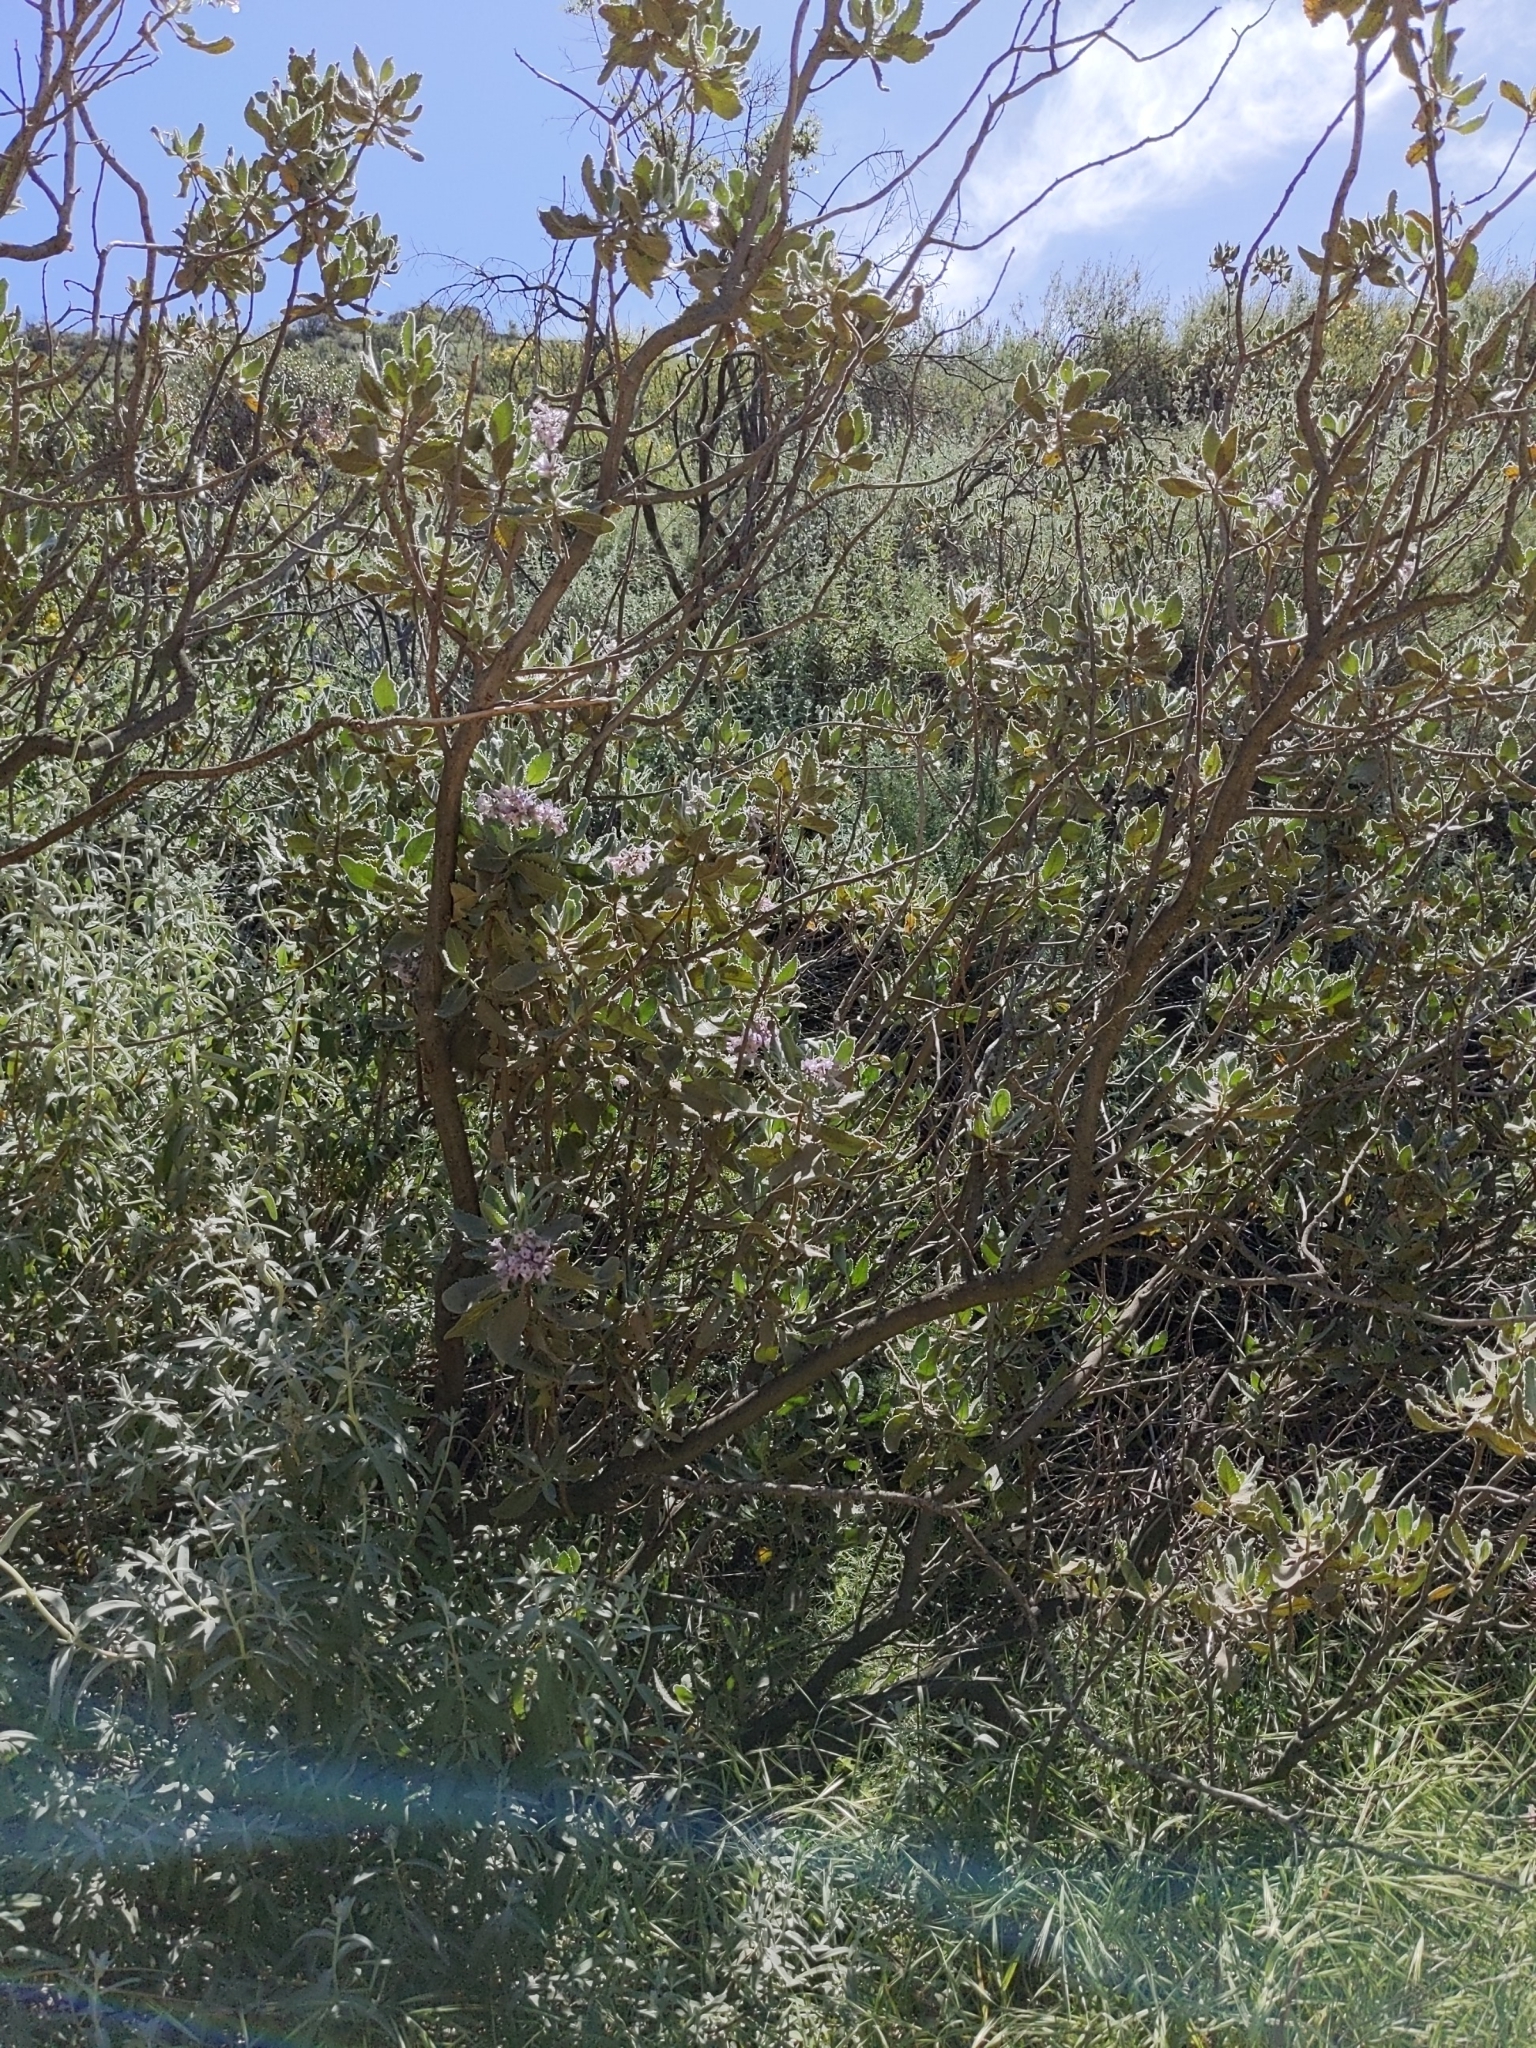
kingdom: Plantae
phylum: Tracheophyta
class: Magnoliopsida
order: Boraginales
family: Namaceae
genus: Eriodictyon
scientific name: Eriodictyon crassifolium
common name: Thick-leaf yerba-santa
